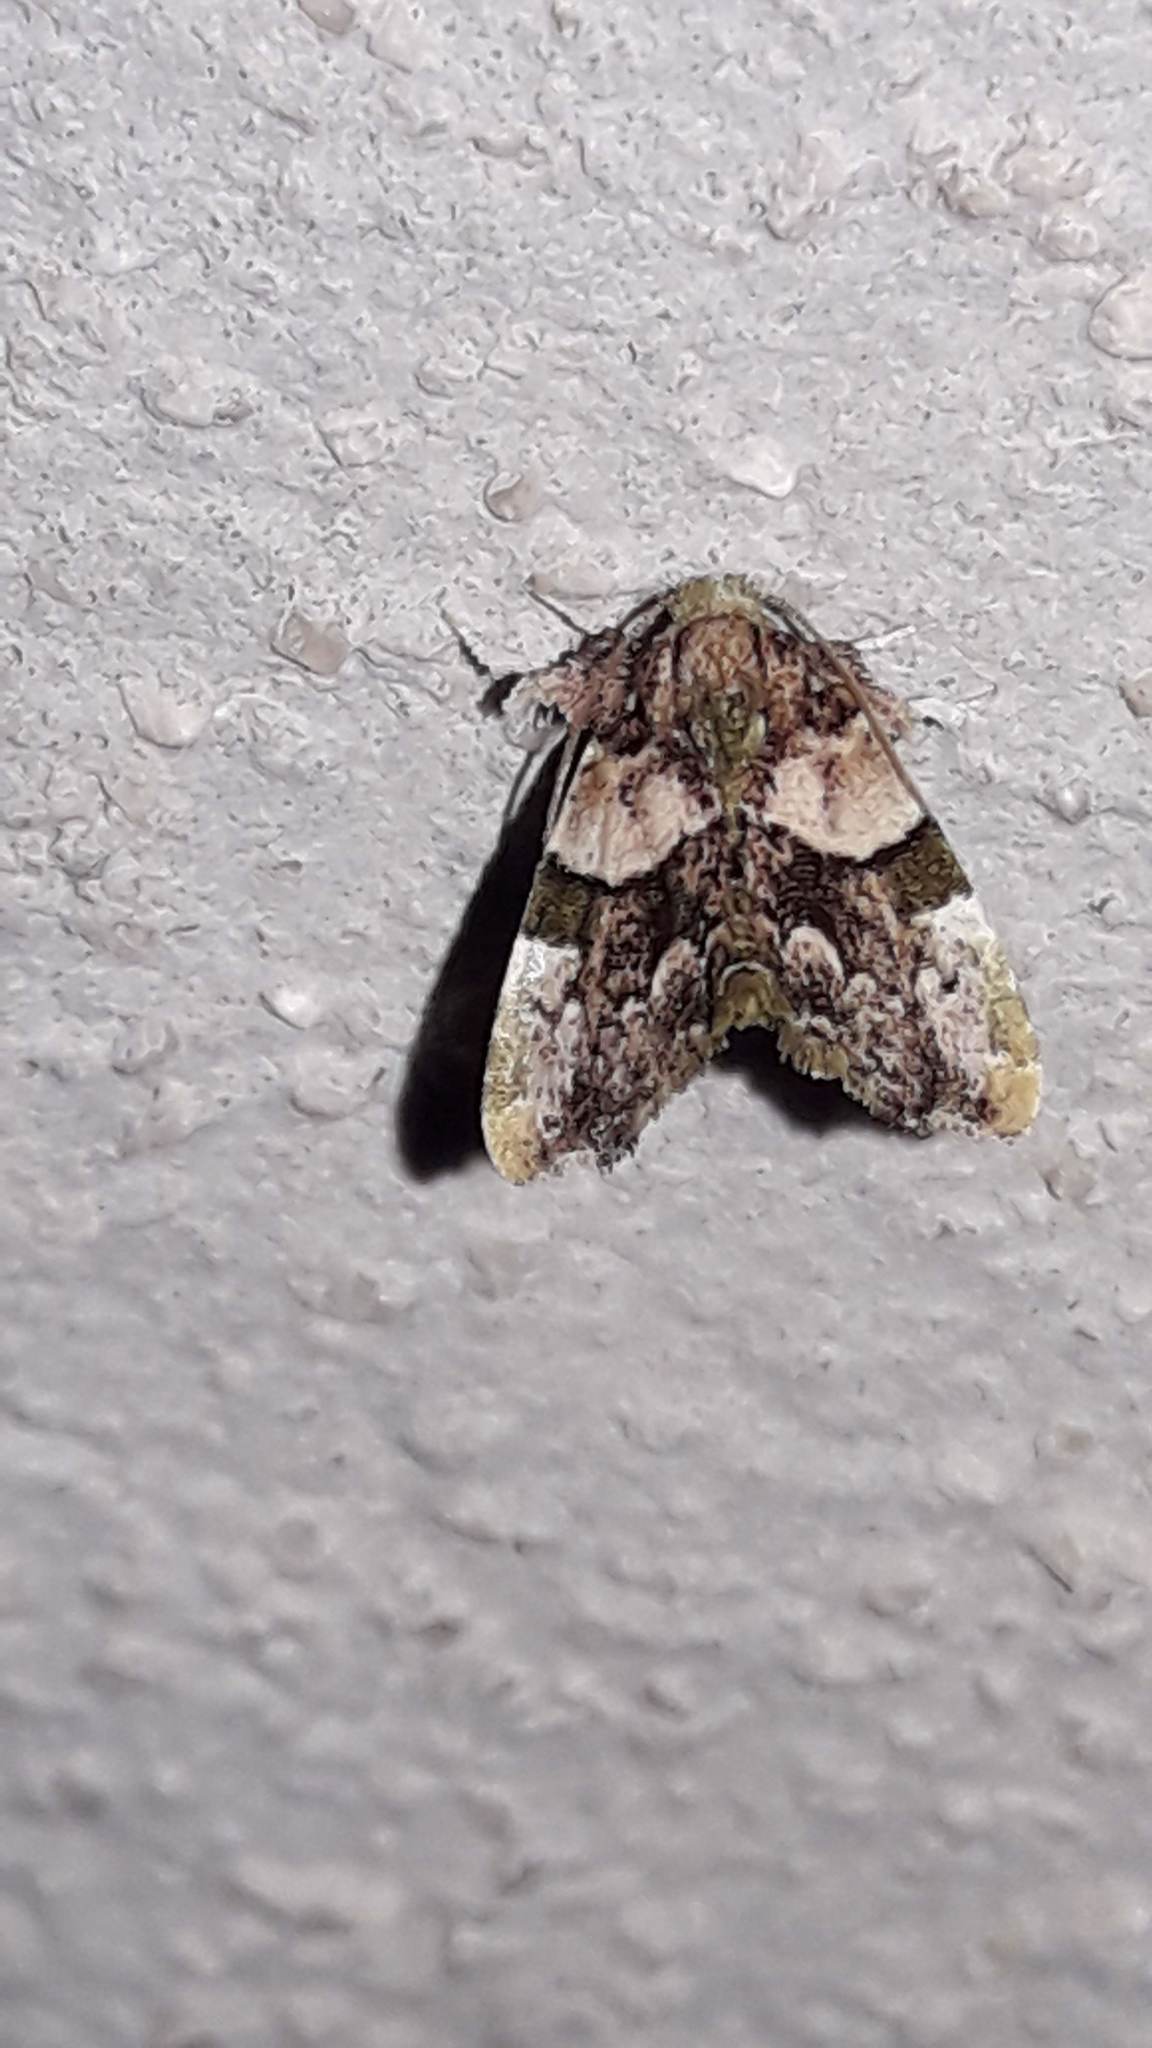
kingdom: Animalia
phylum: Arthropoda
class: Insecta
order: Lepidoptera
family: Noctuidae
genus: Erastroides
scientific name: Erastroides emarginata
